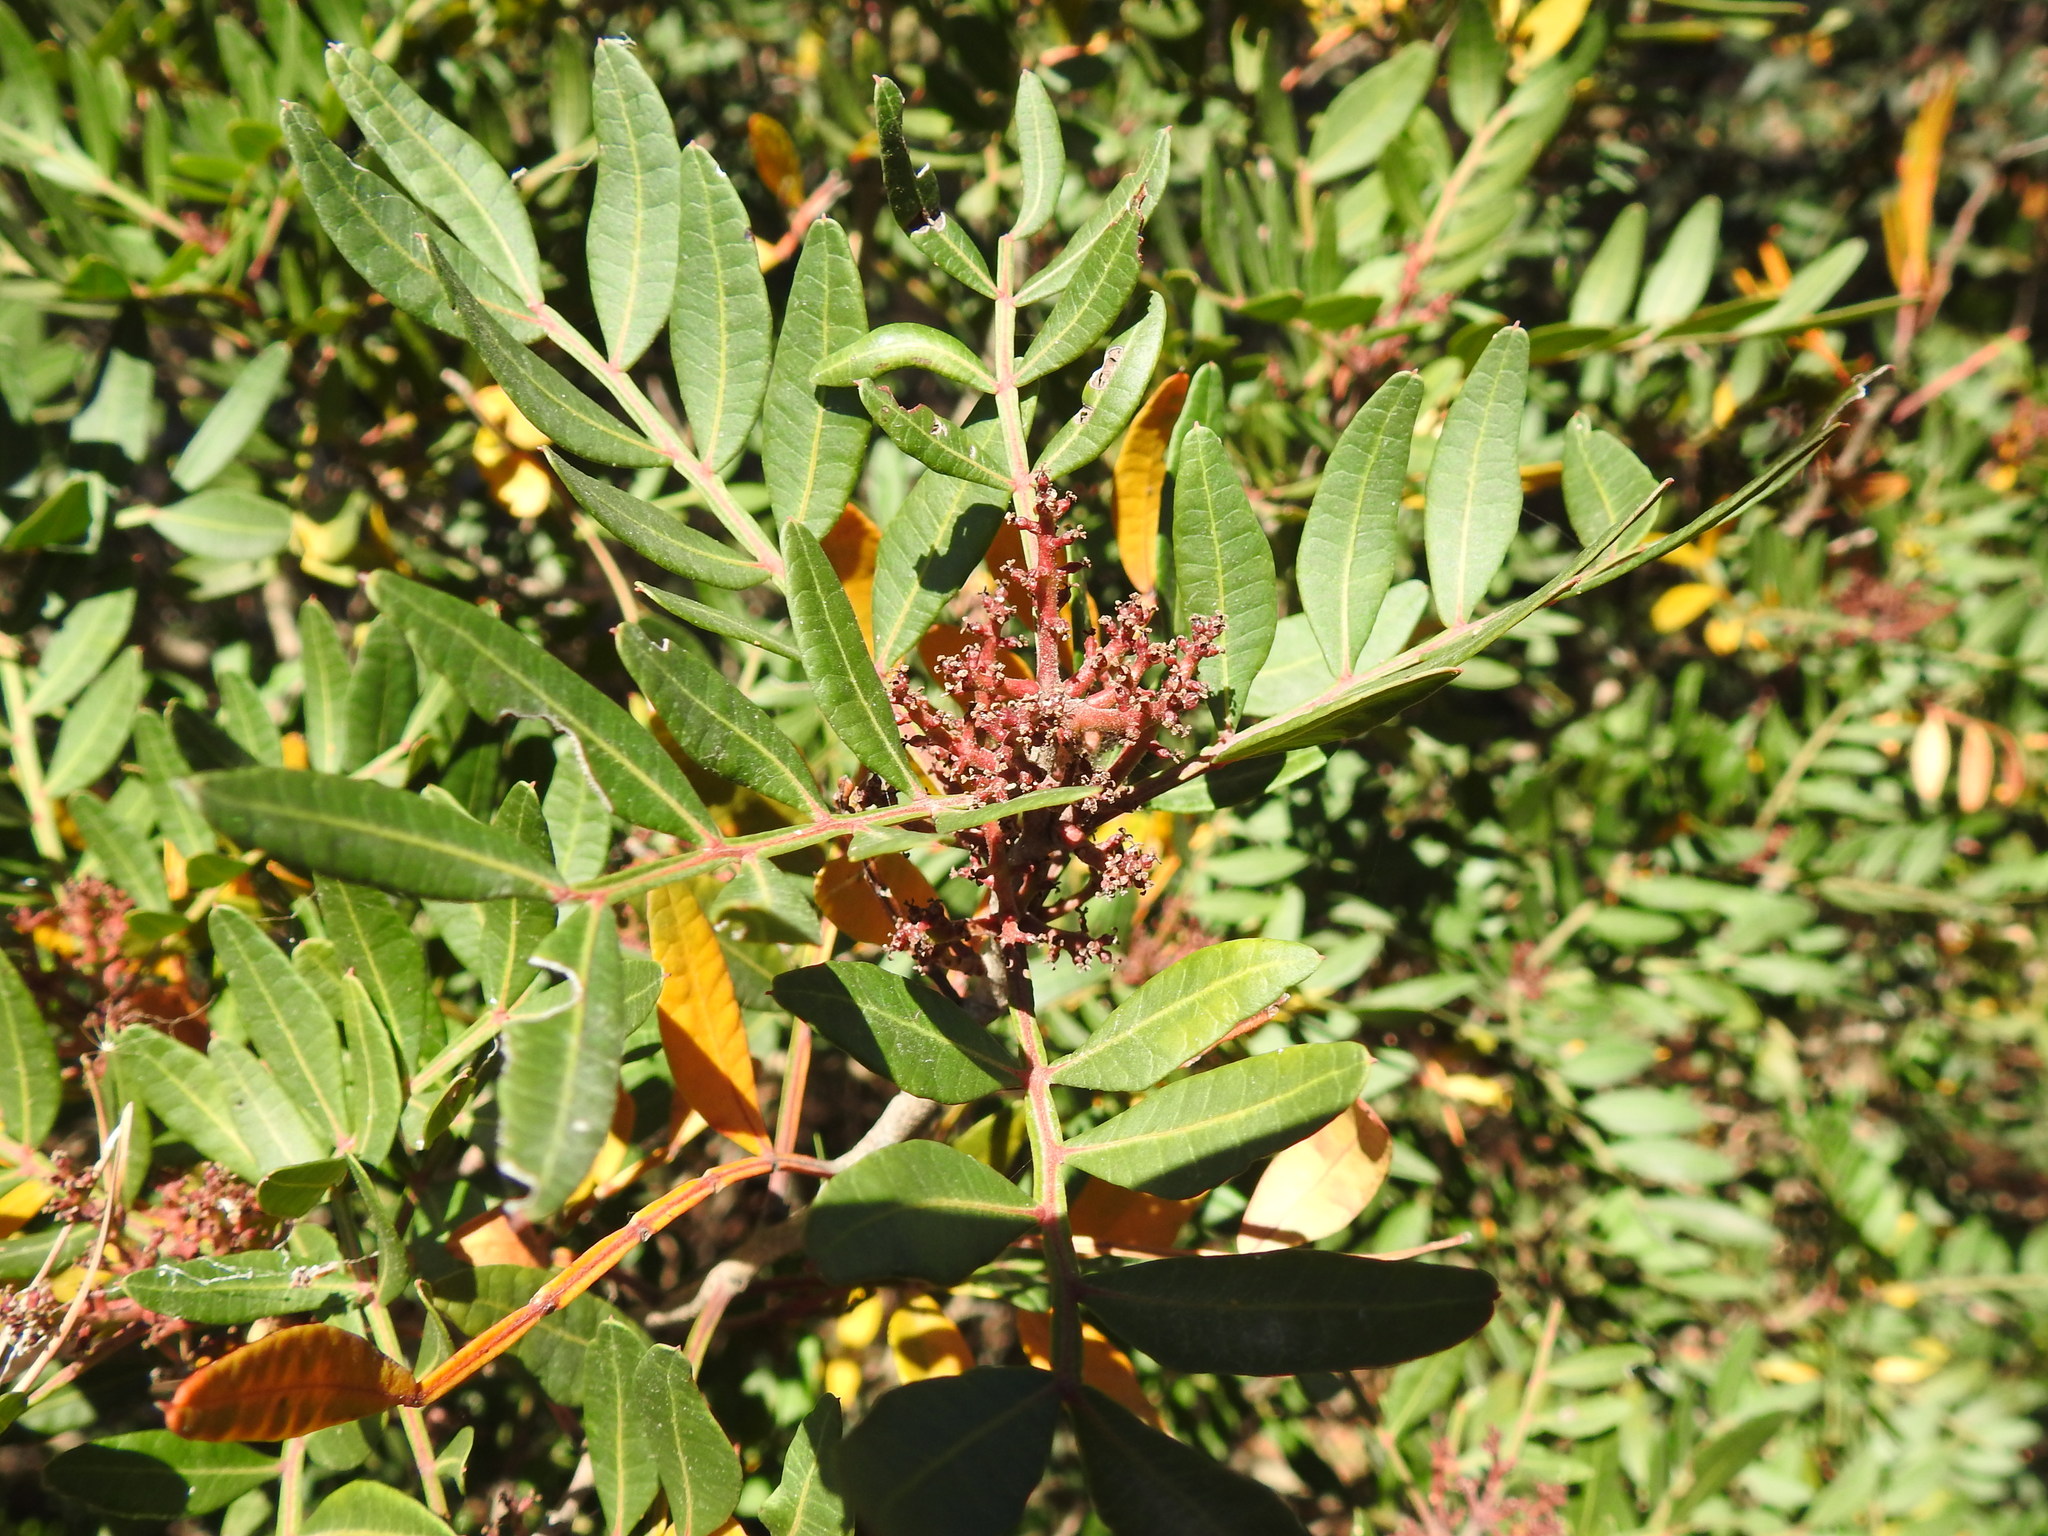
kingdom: Plantae
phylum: Tracheophyta
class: Magnoliopsida
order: Sapindales
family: Anacardiaceae
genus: Pistacia
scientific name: Pistacia lentiscus
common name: Lentisk
